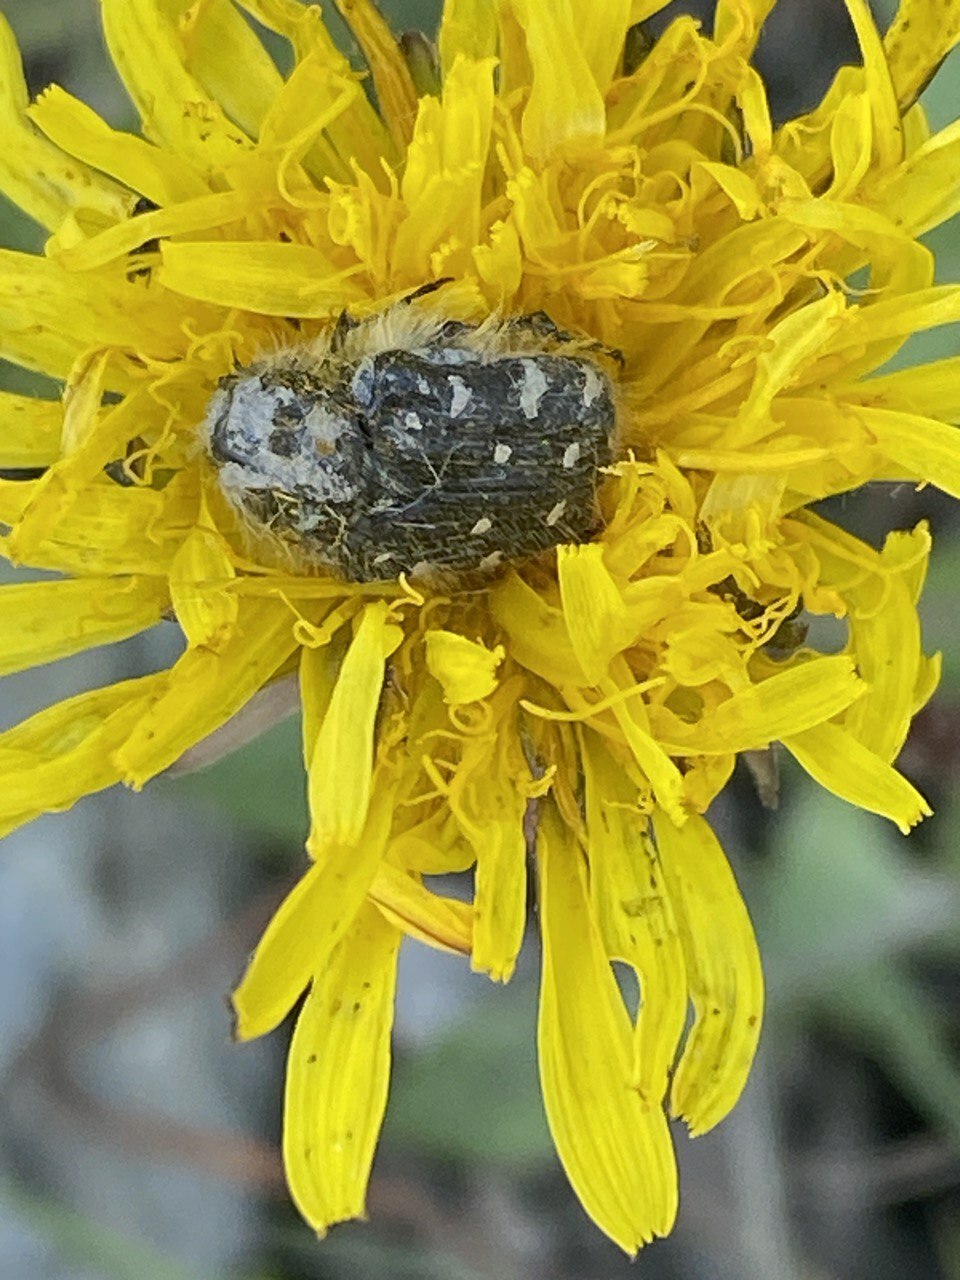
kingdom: Animalia
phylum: Arthropoda
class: Insecta
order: Coleoptera
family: Scarabaeidae
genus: Tropinota
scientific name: Tropinota hirta
